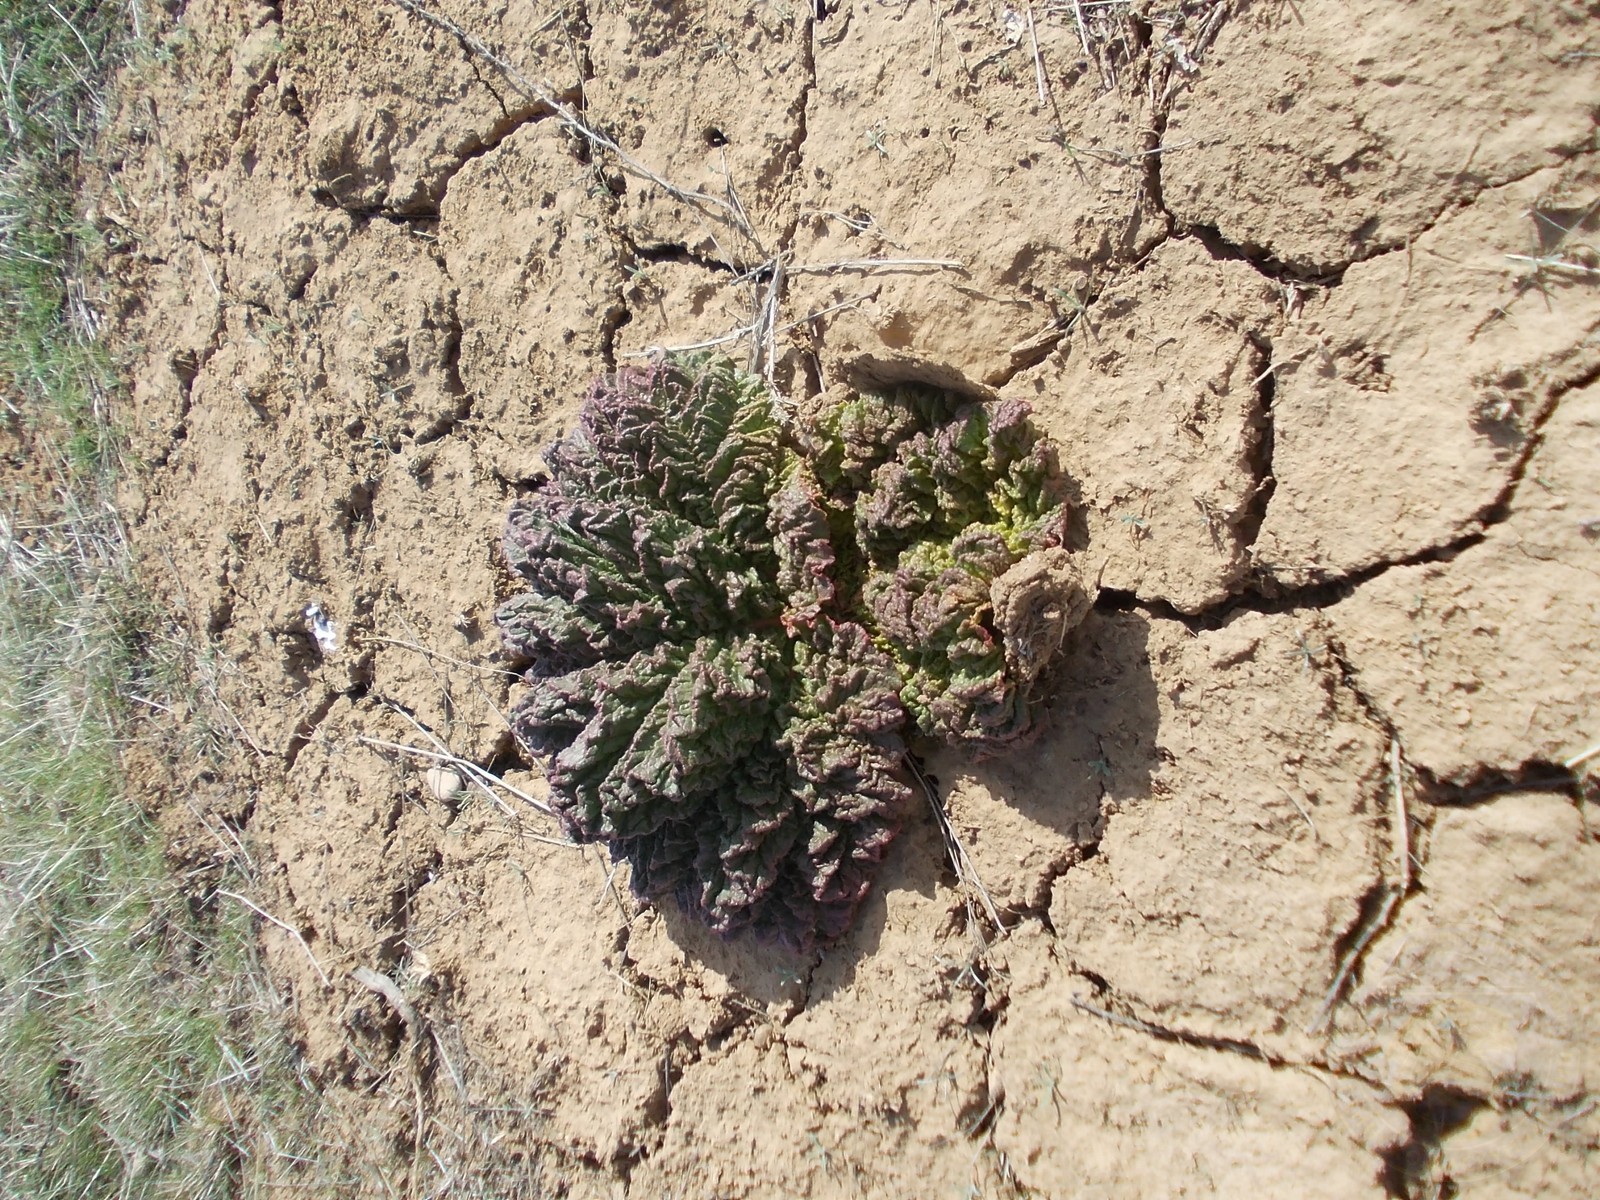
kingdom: Plantae
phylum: Tracheophyta
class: Magnoliopsida
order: Caryophyllales
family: Polygonaceae
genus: Rheum
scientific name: Rheum tataricum
